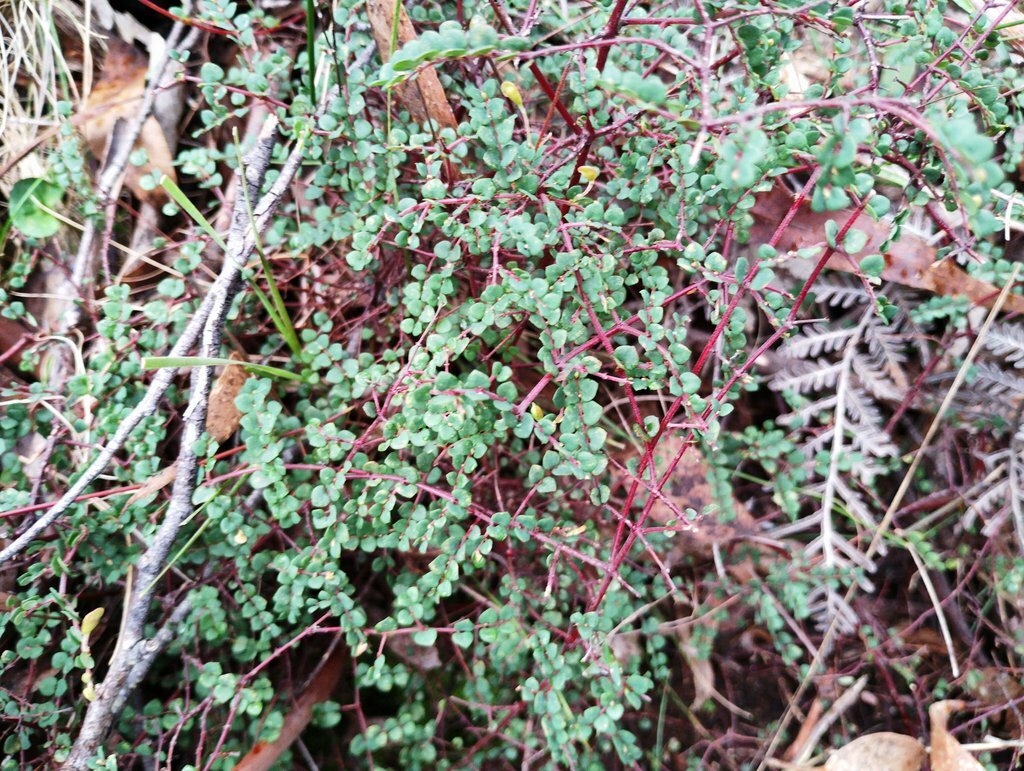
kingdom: Plantae
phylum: Tracheophyta
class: Magnoliopsida
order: Fabales
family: Fabaceae
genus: Bossiaea
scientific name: Bossiaea hendersonii
